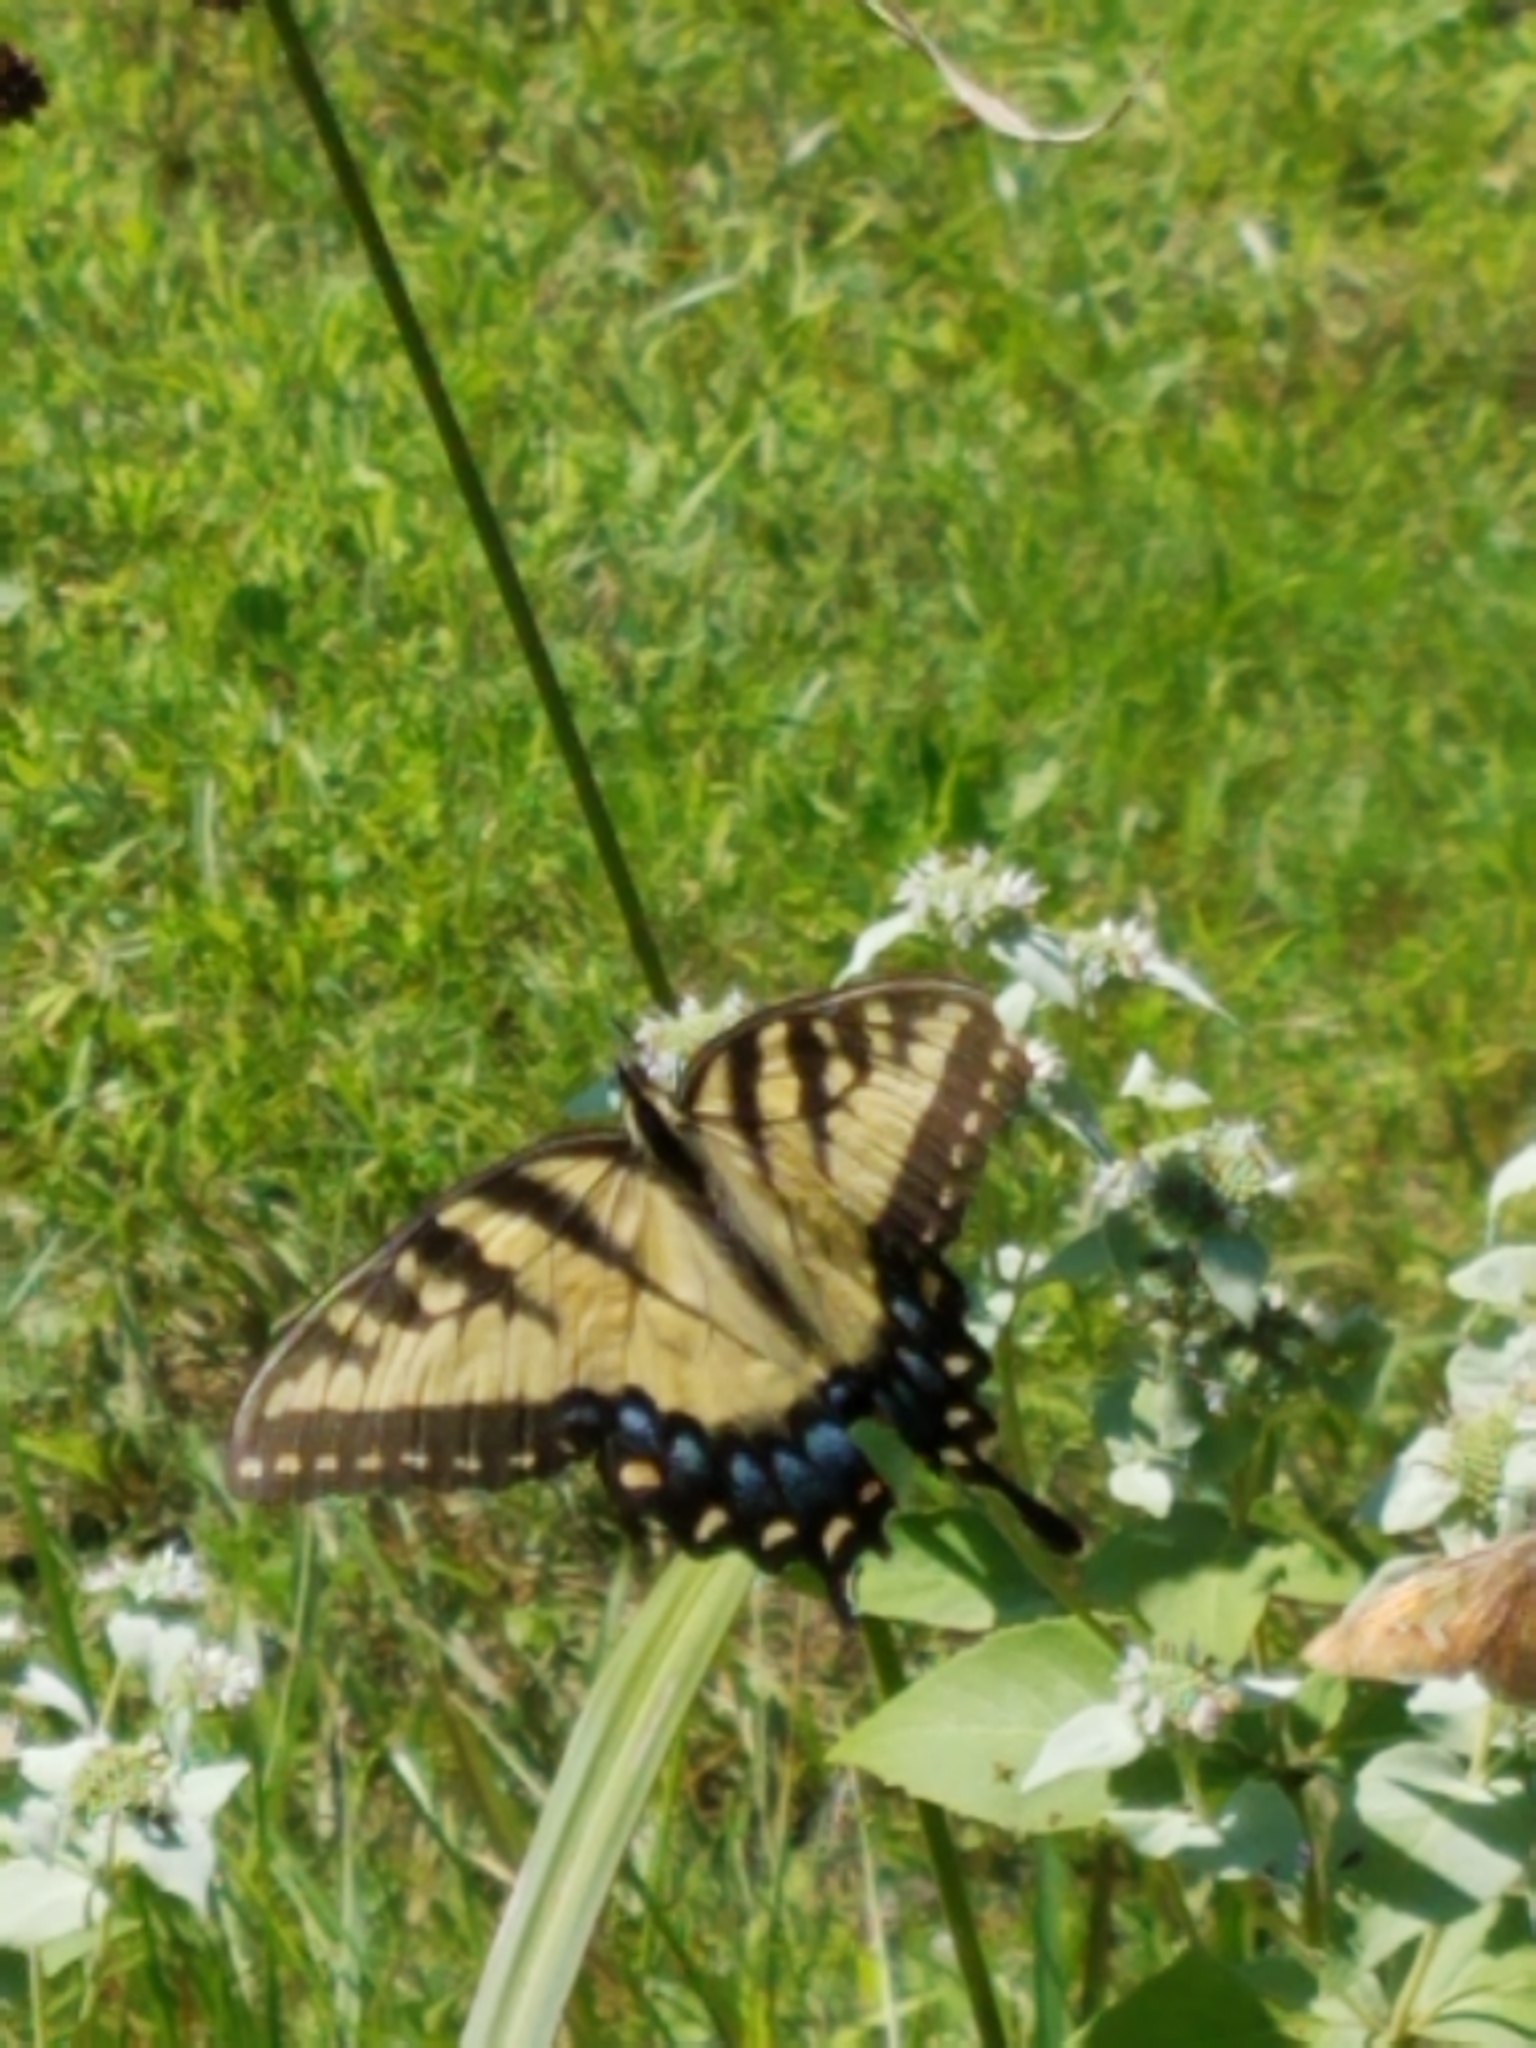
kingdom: Animalia
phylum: Arthropoda
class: Insecta
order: Lepidoptera
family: Papilionidae
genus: Papilio
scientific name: Papilio glaucus
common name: Tiger swallowtail
